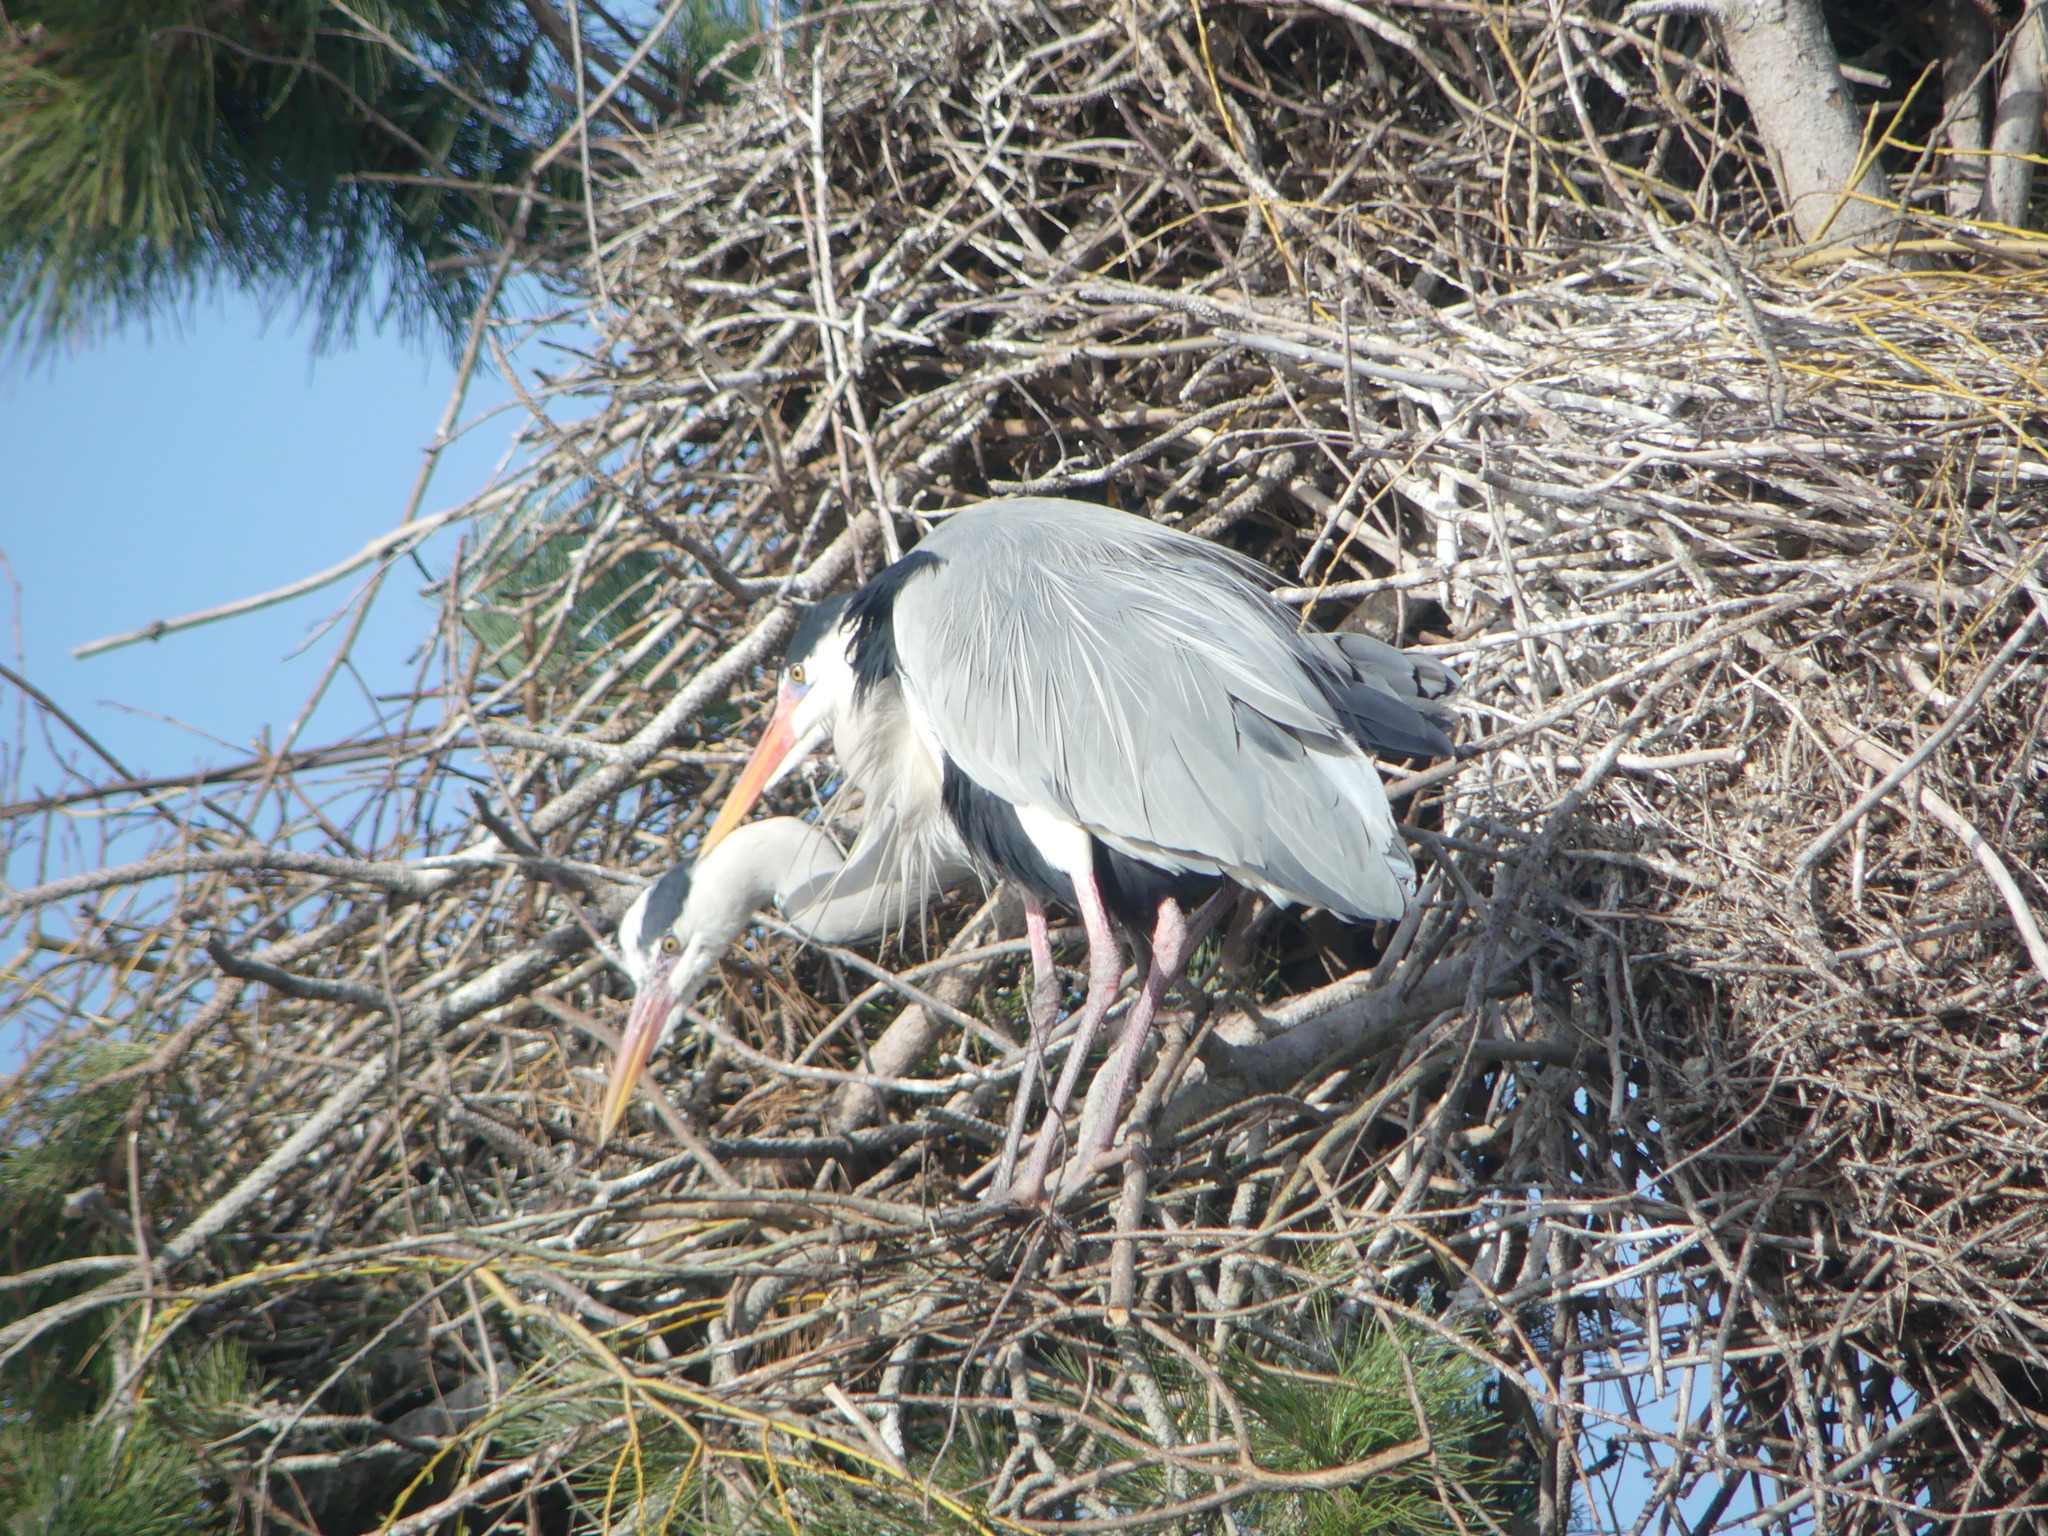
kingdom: Animalia
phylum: Chordata
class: Aves
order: Pelecaniformes
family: Ardeidae
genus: Ardea
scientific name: Ardea cinerea
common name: Grey heron
